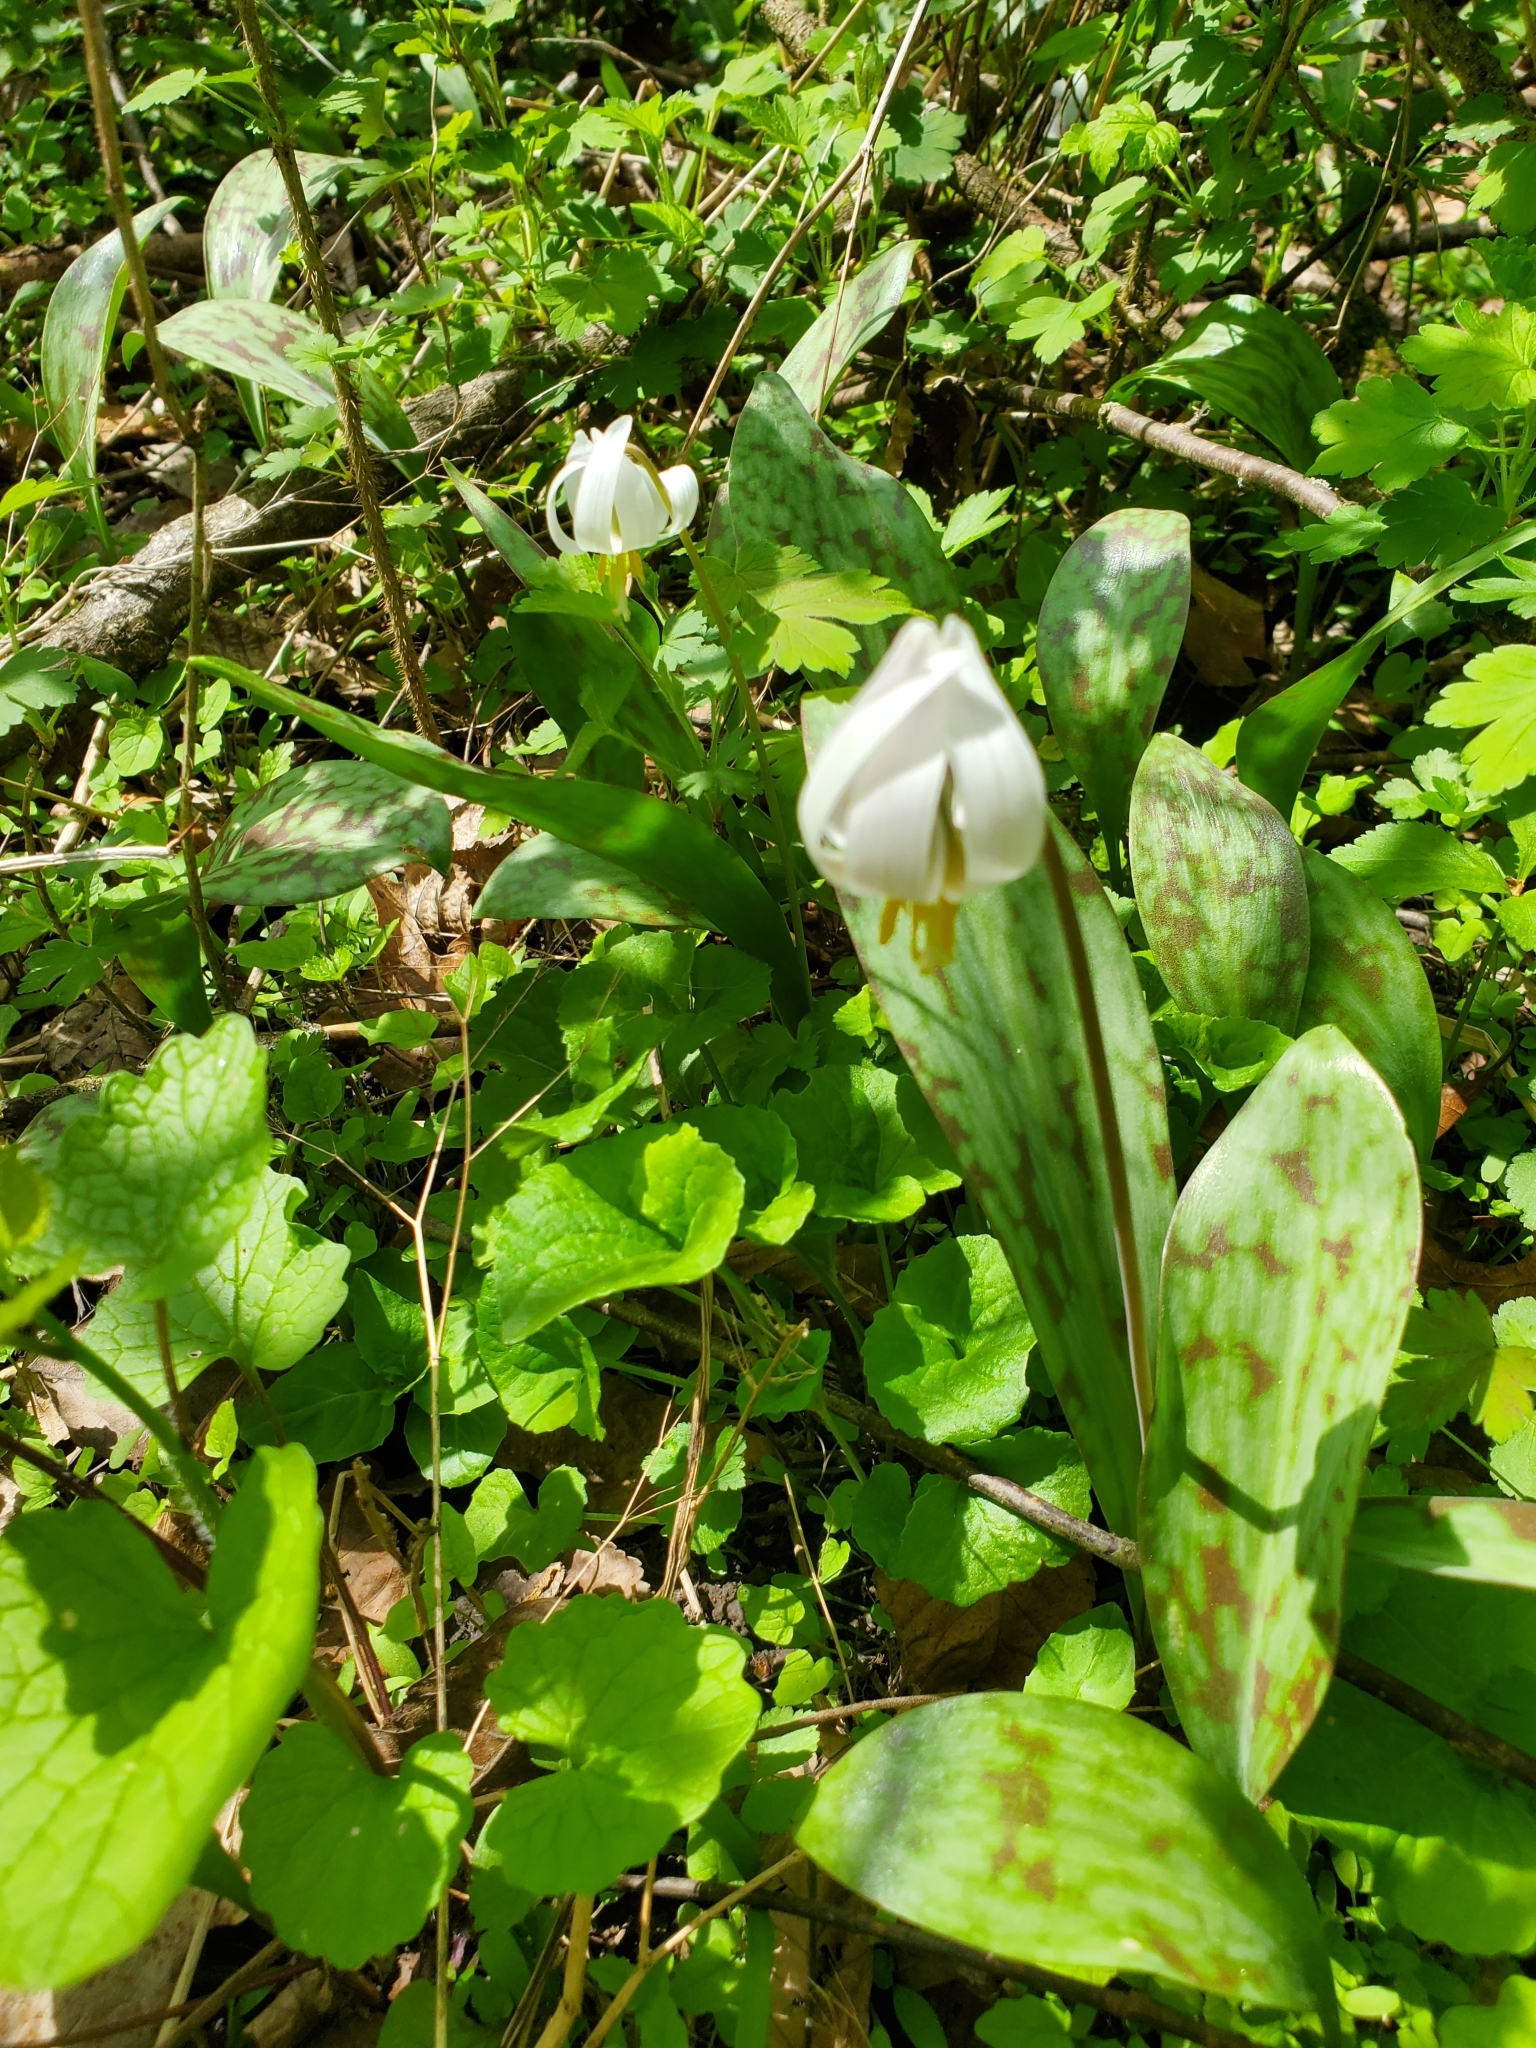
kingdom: Plantae
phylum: Tracheophyta
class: Liliopsida
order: Liliales
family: Liliaceae
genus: Erythronium
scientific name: Erythronium albidum
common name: White trout-lily
